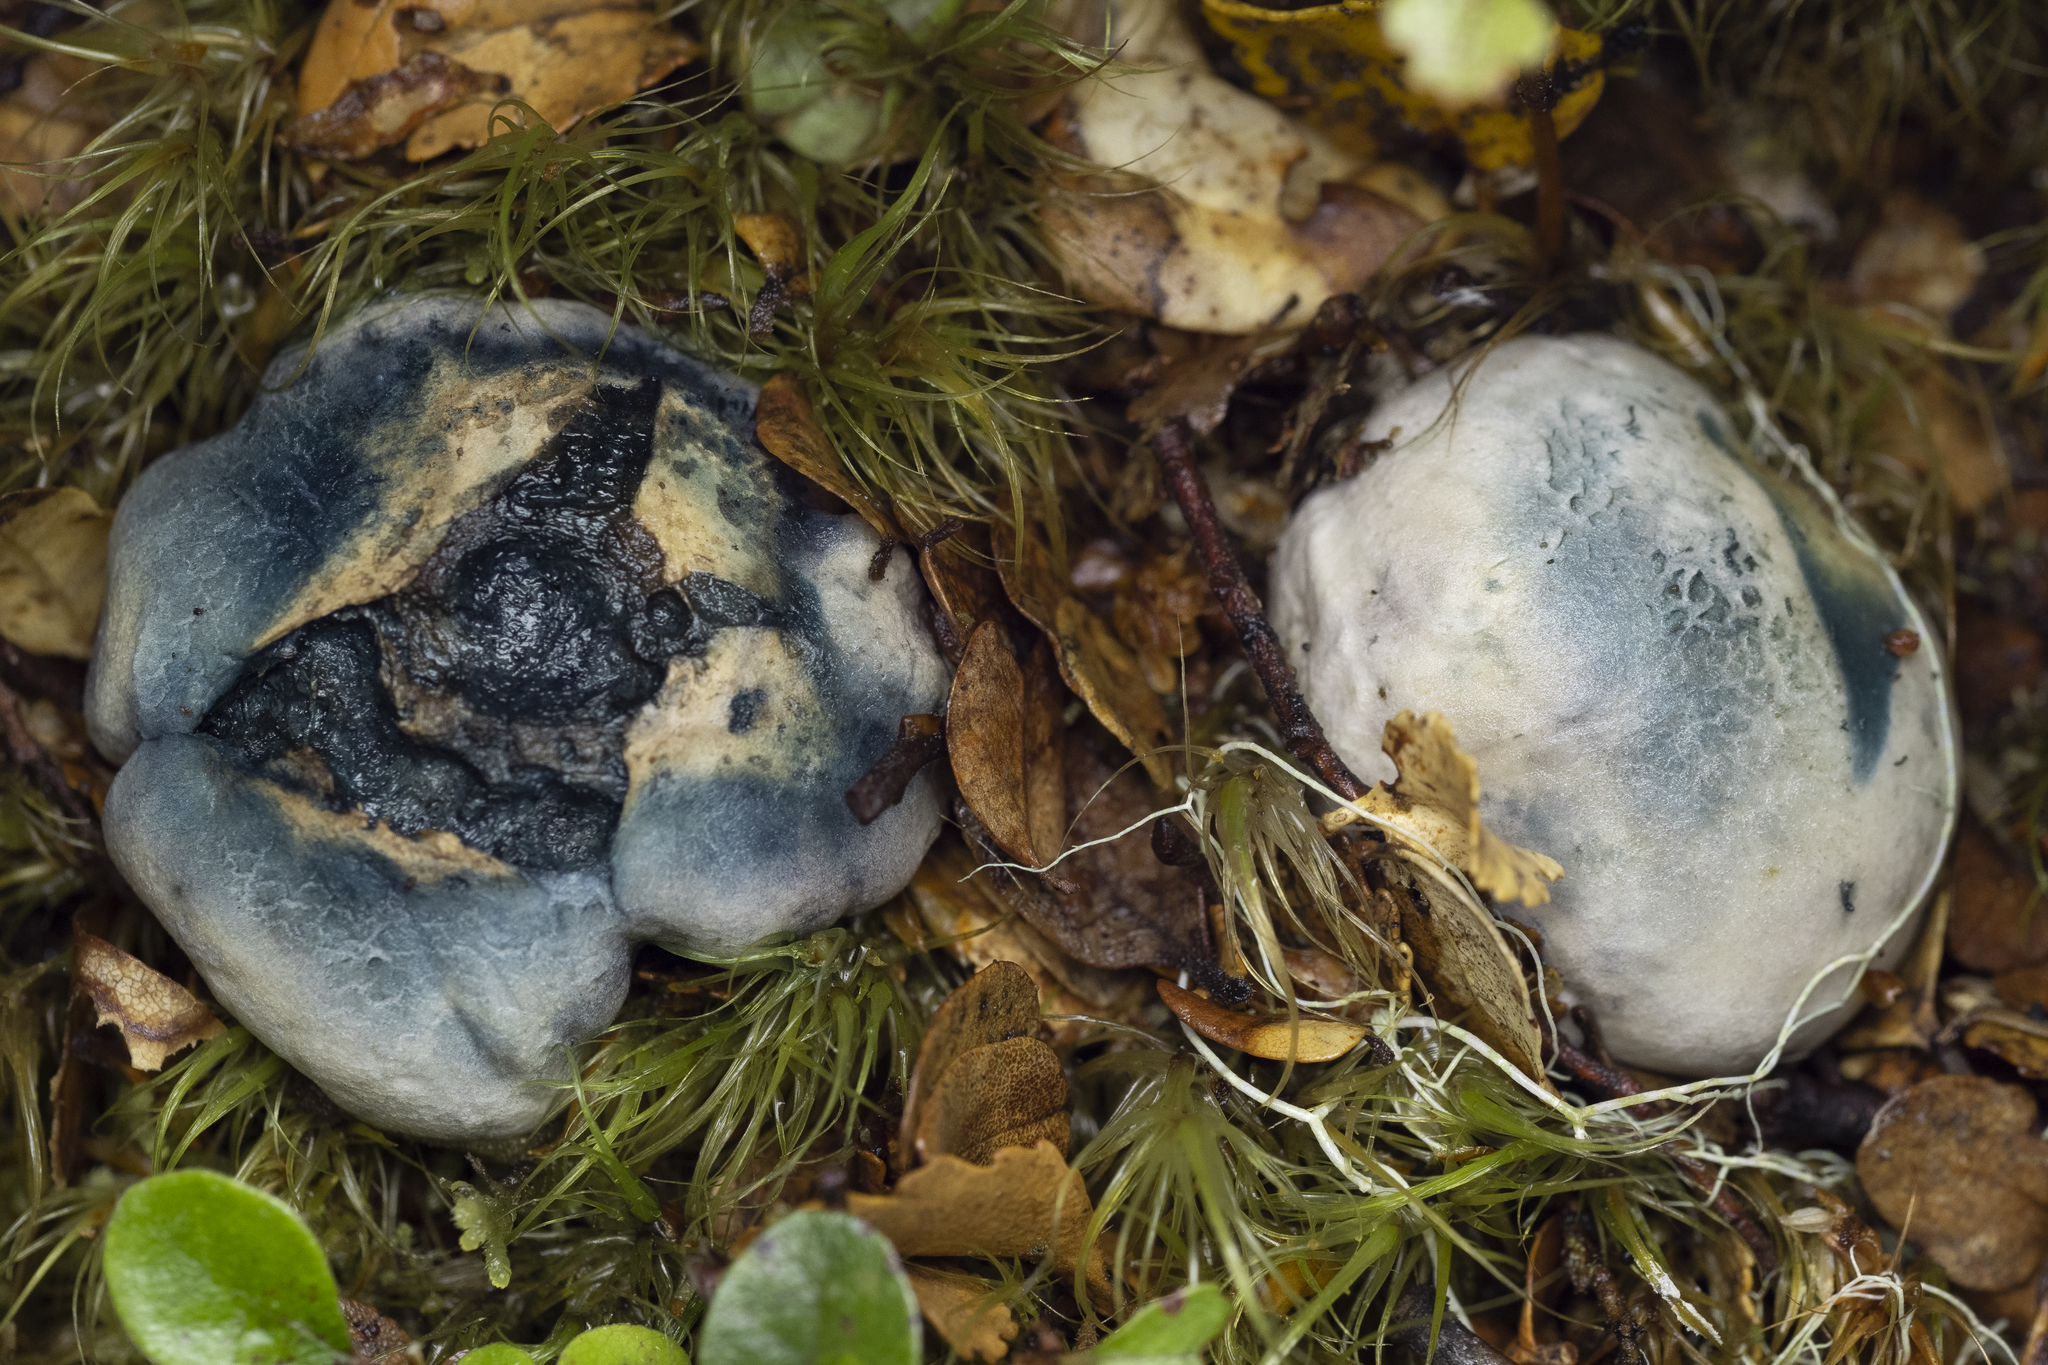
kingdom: Fungi
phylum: Basidiomycota
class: Agaricomycetes
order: Boletales
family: Boletaceae
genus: Leccinum
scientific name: Leccinum pachyderme
